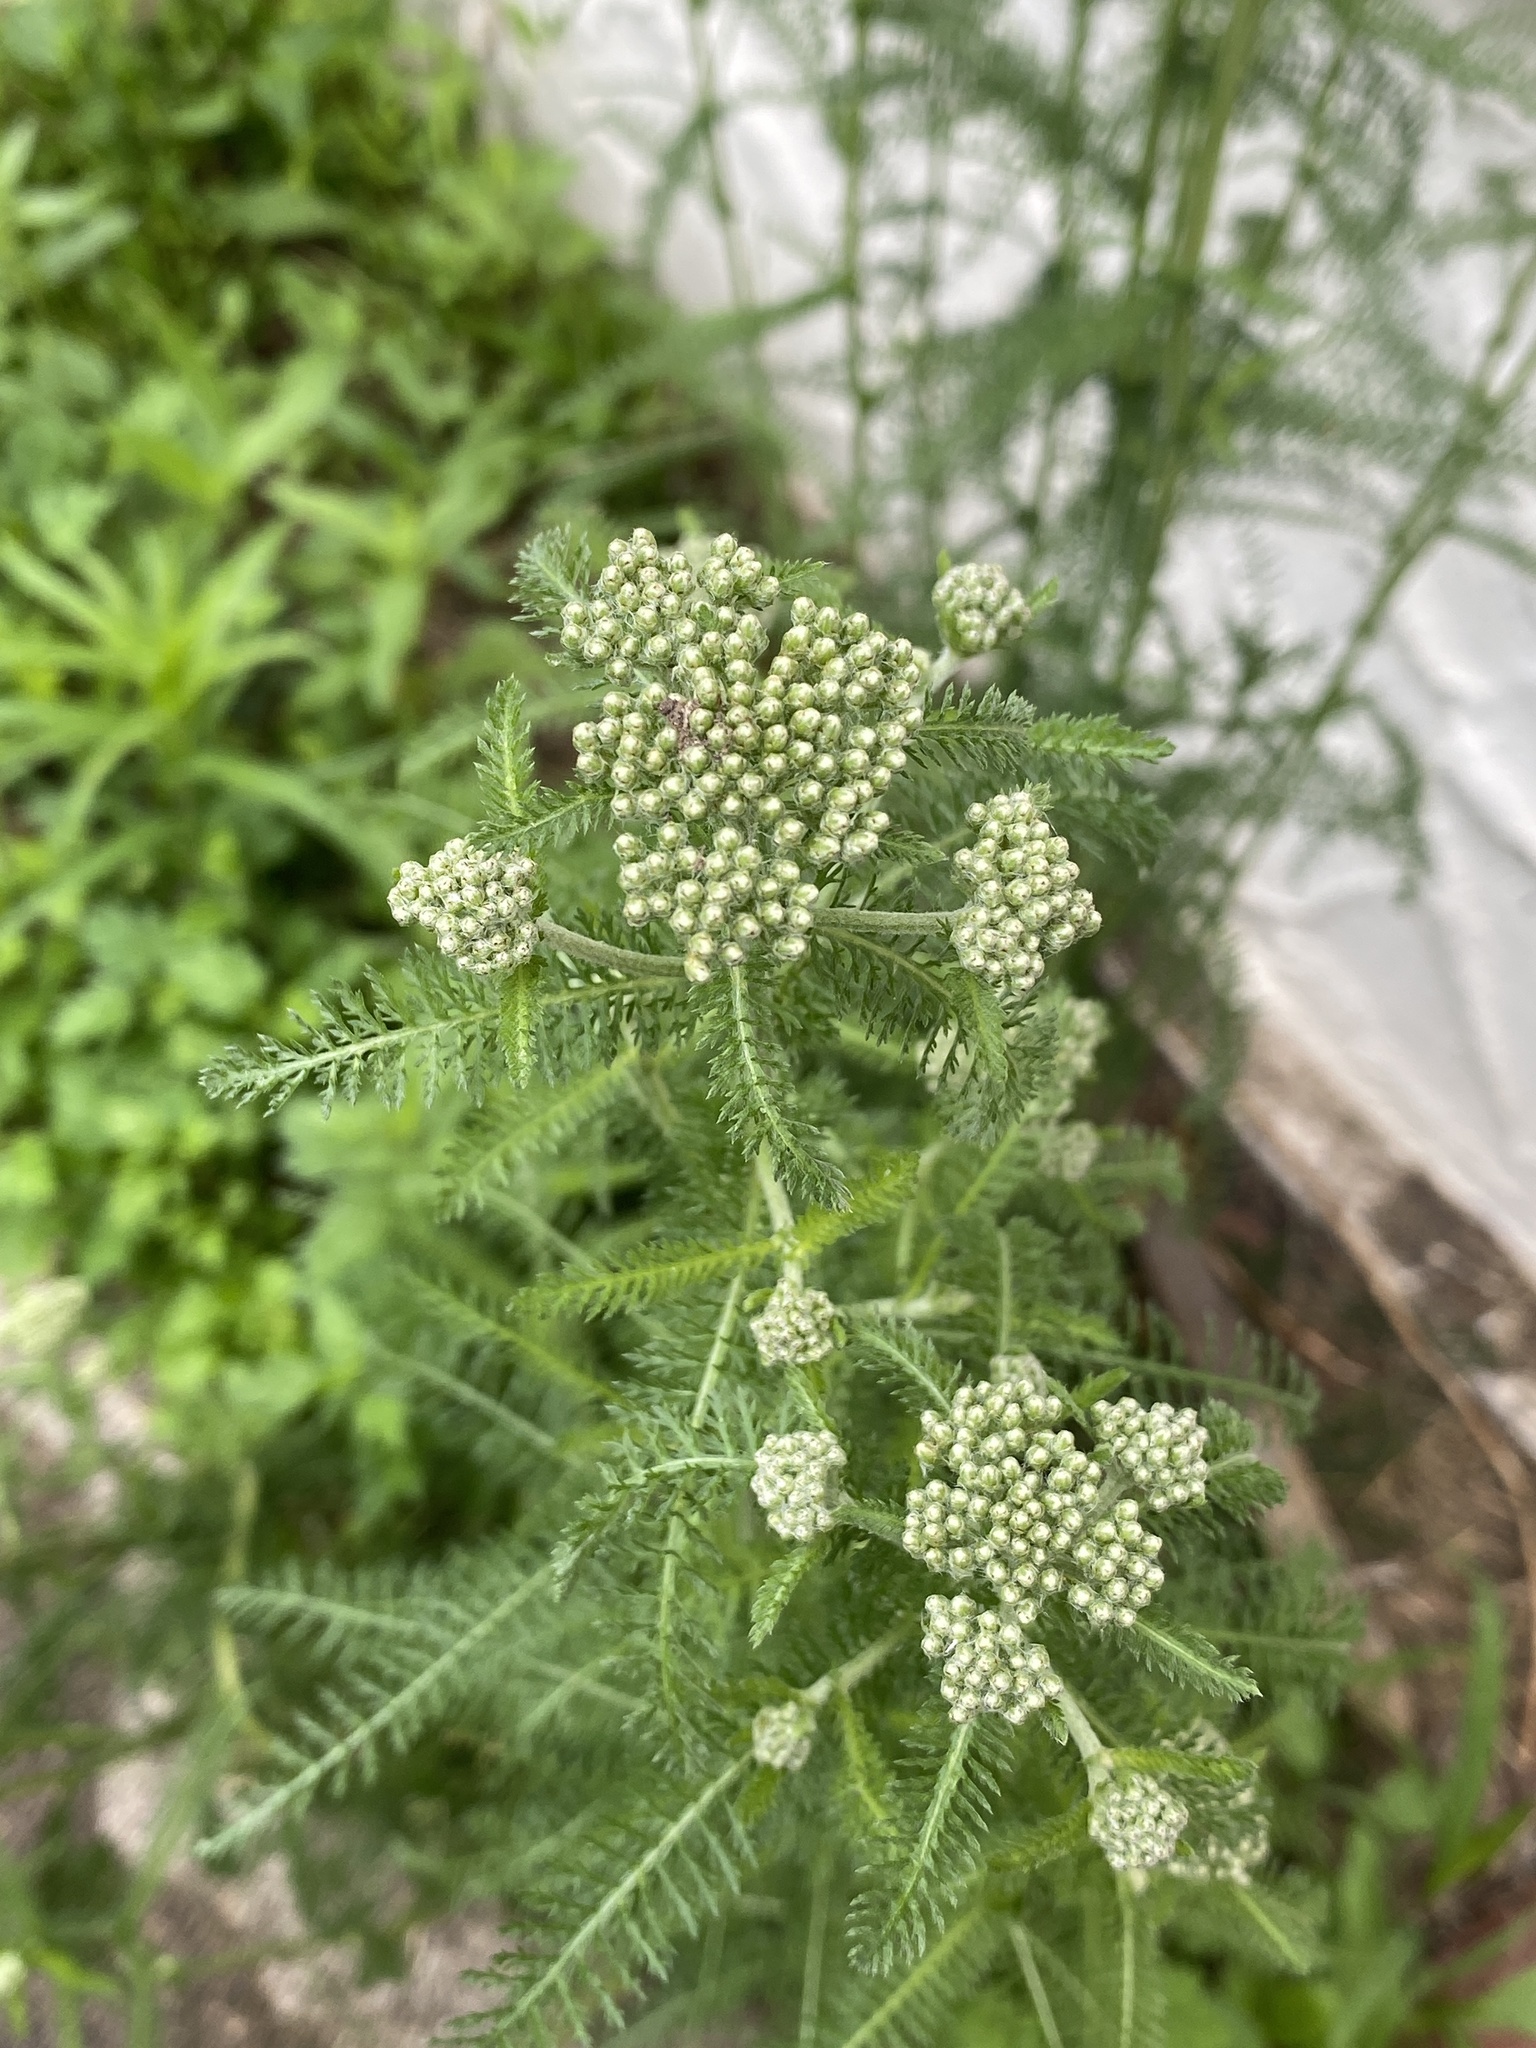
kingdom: Plantae
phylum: Tracheophyta
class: Magnoliopsida
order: Asterales
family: Asteraceae
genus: Achillea
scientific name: Achillea millefolium
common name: Yarrow
